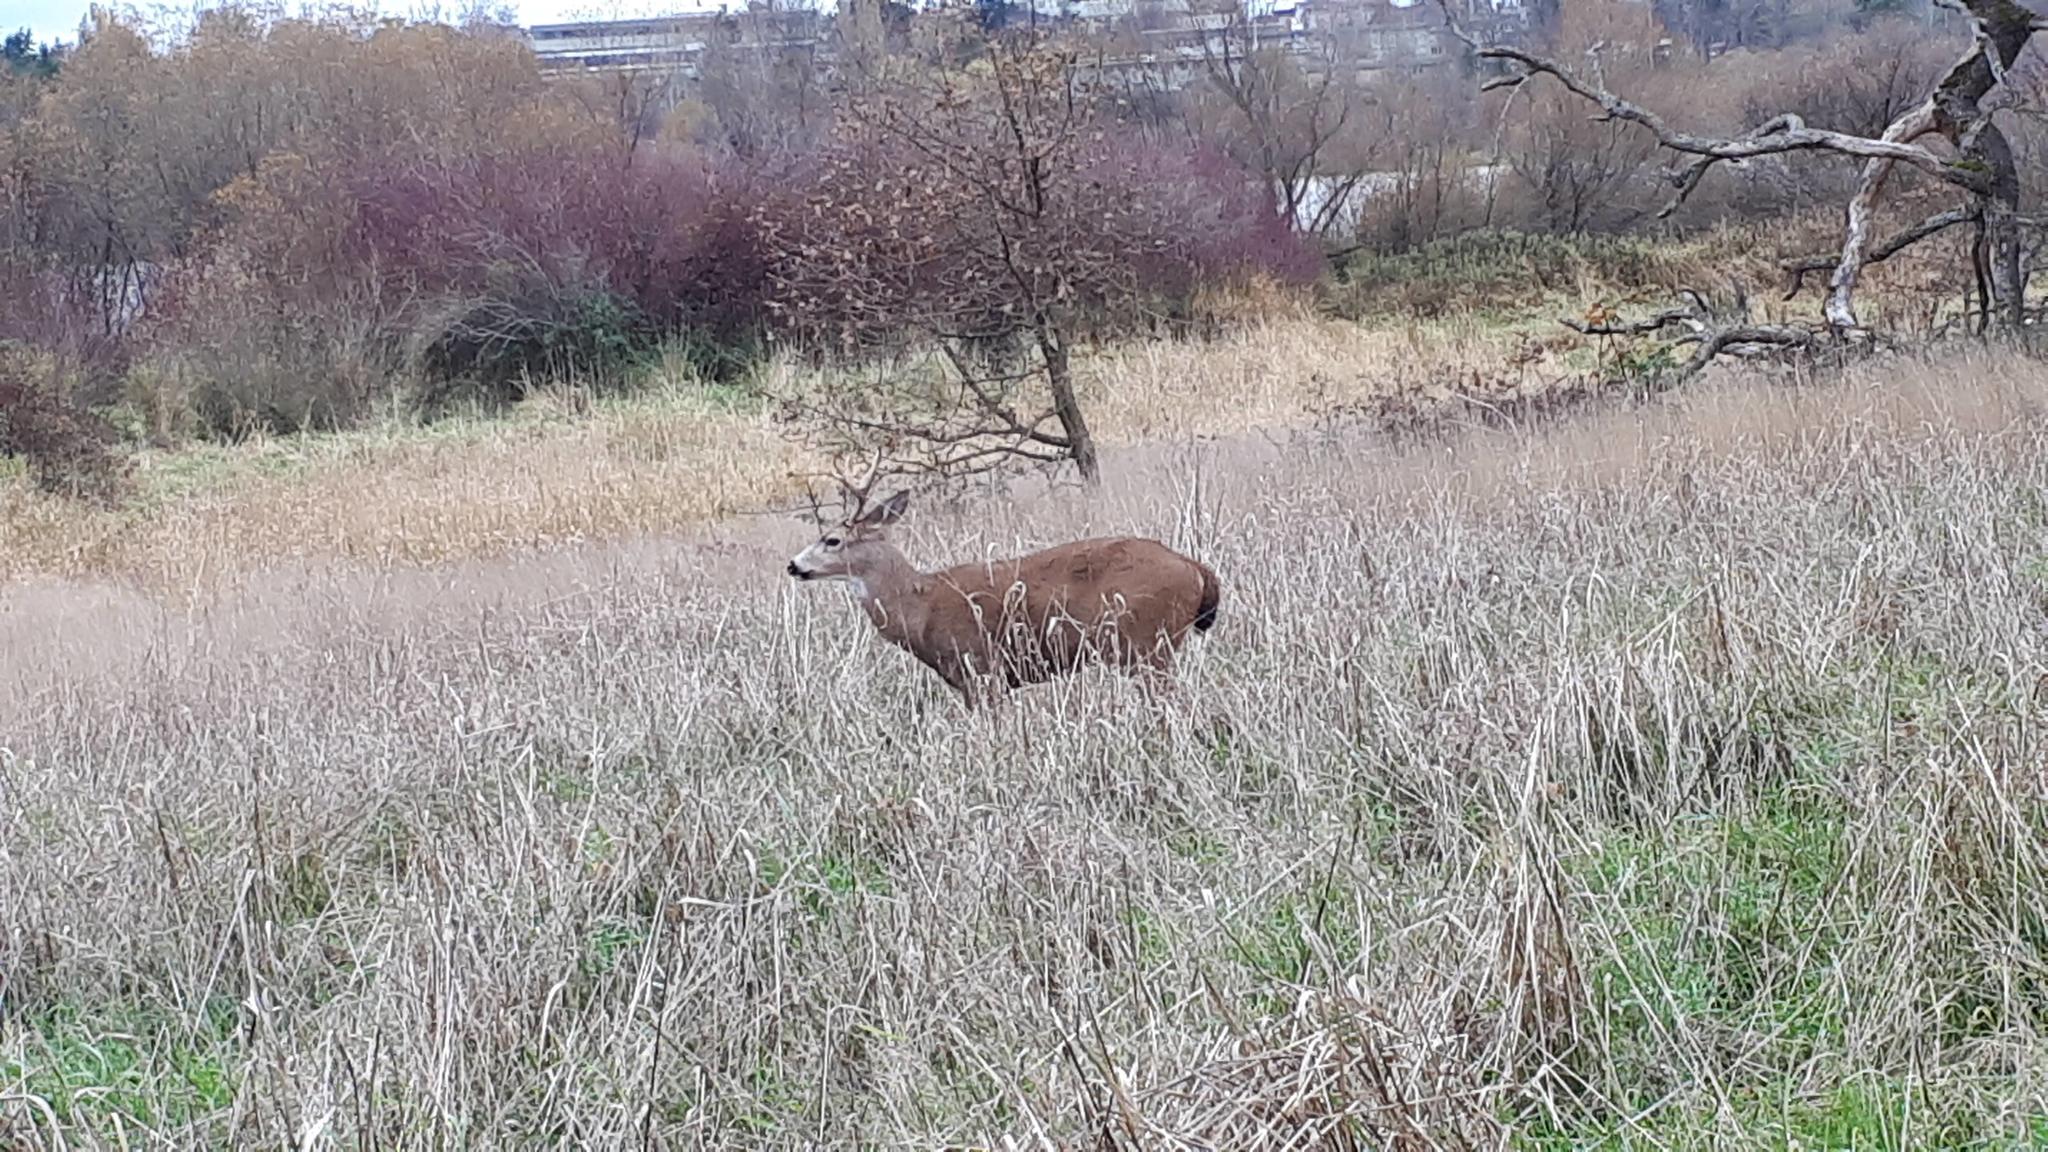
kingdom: Animalia
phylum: Chordata
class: Mammalia
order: Artiodactyla
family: Cervidae
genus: Odocoileus
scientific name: Odocoileus hemionus
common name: Mule deer
